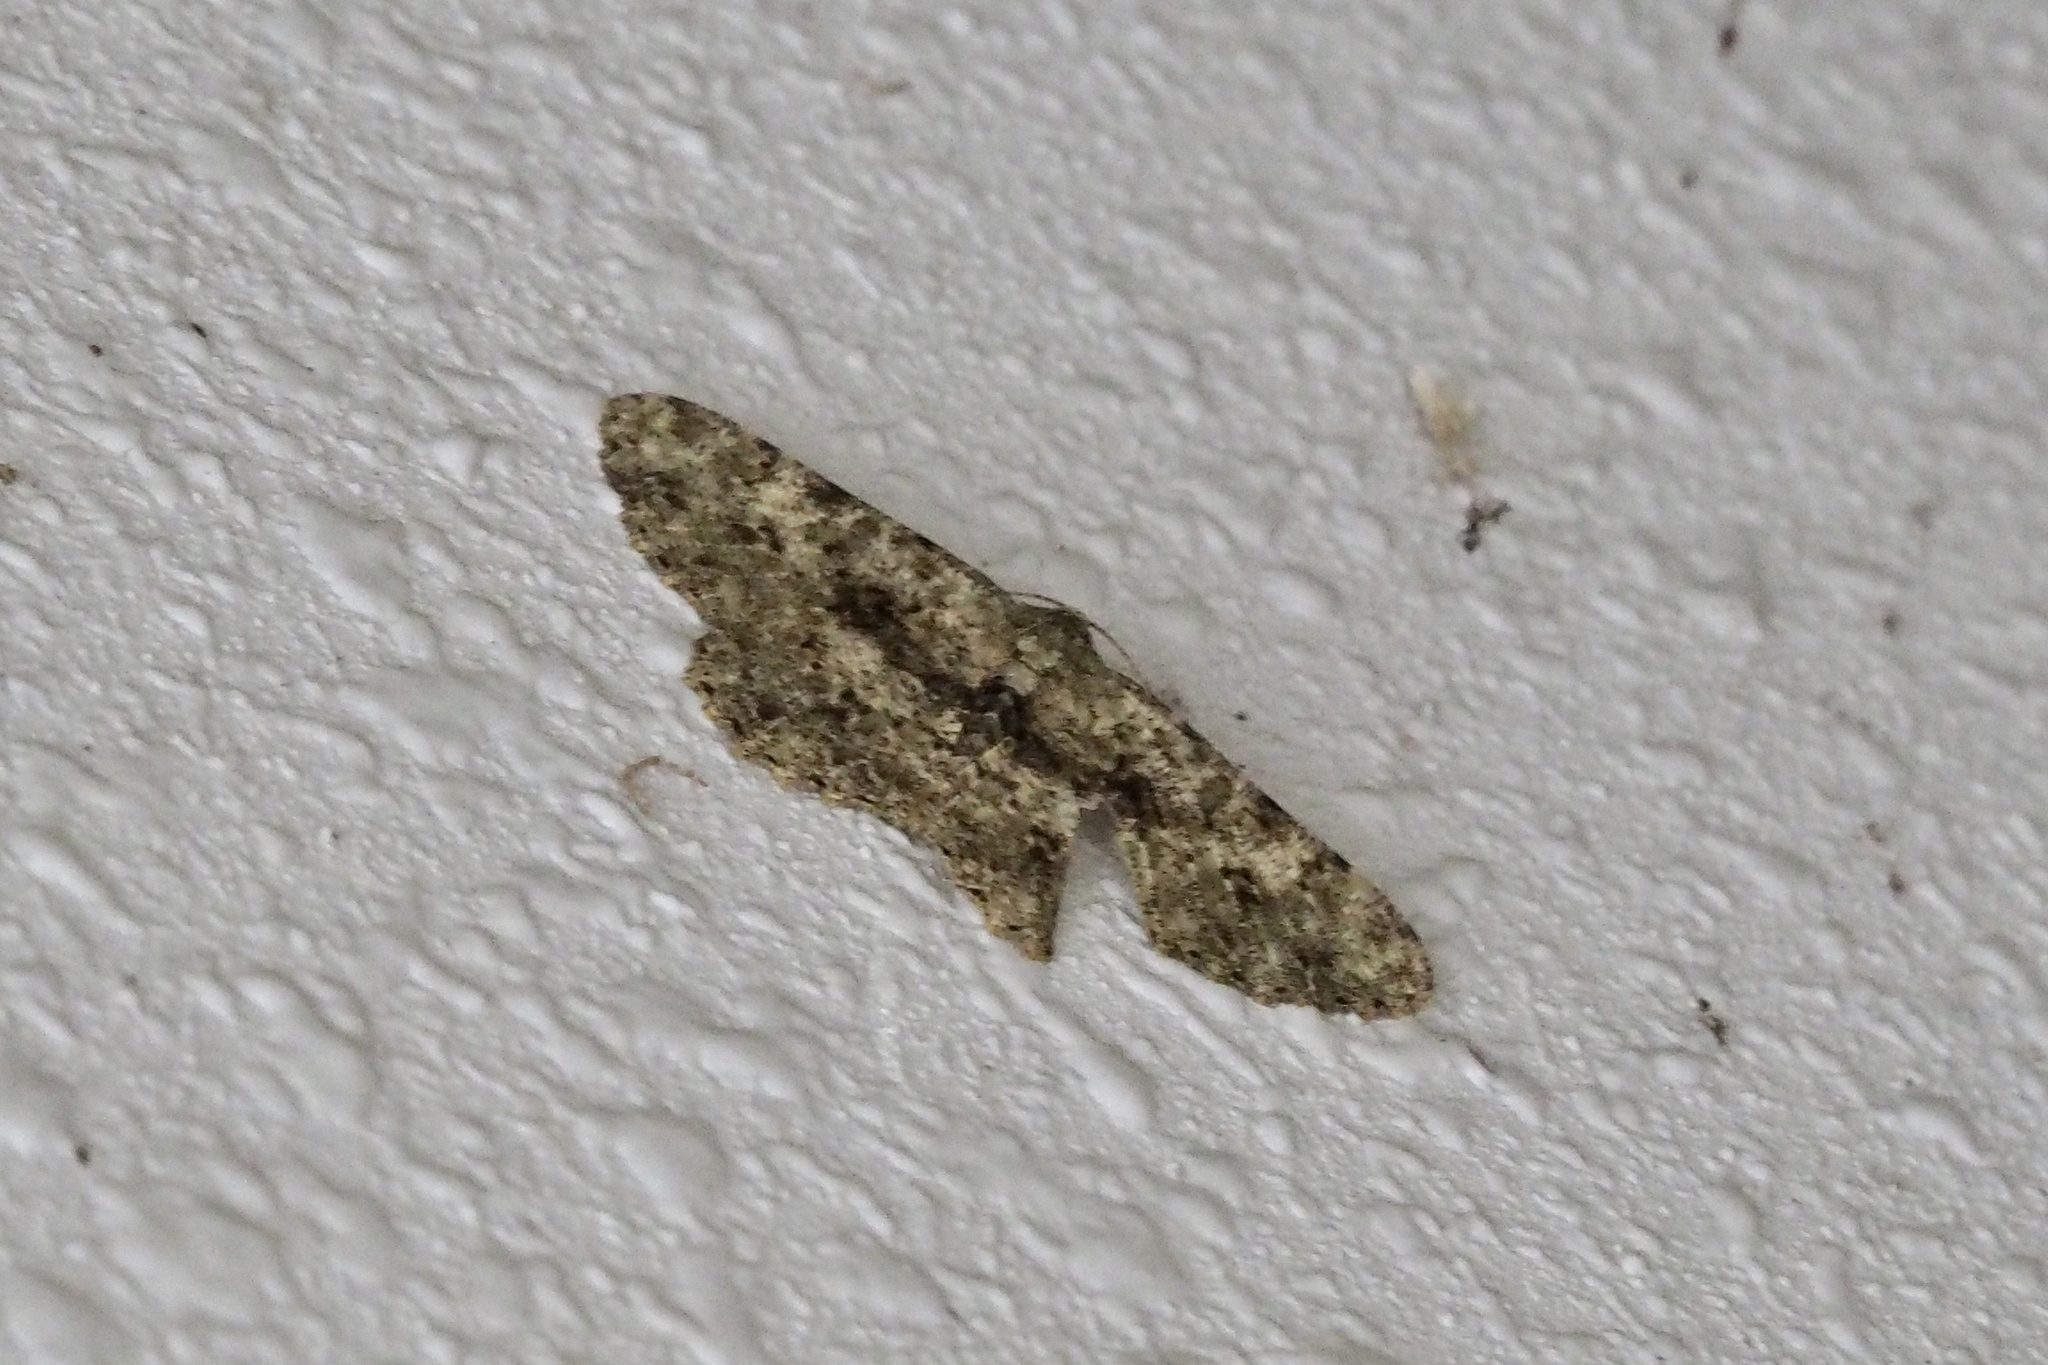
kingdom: Animalia
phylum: Arthropoda
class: Insecta
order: Lepidoptera
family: Geometridae
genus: Racotis
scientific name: Racotis boarmiaria
